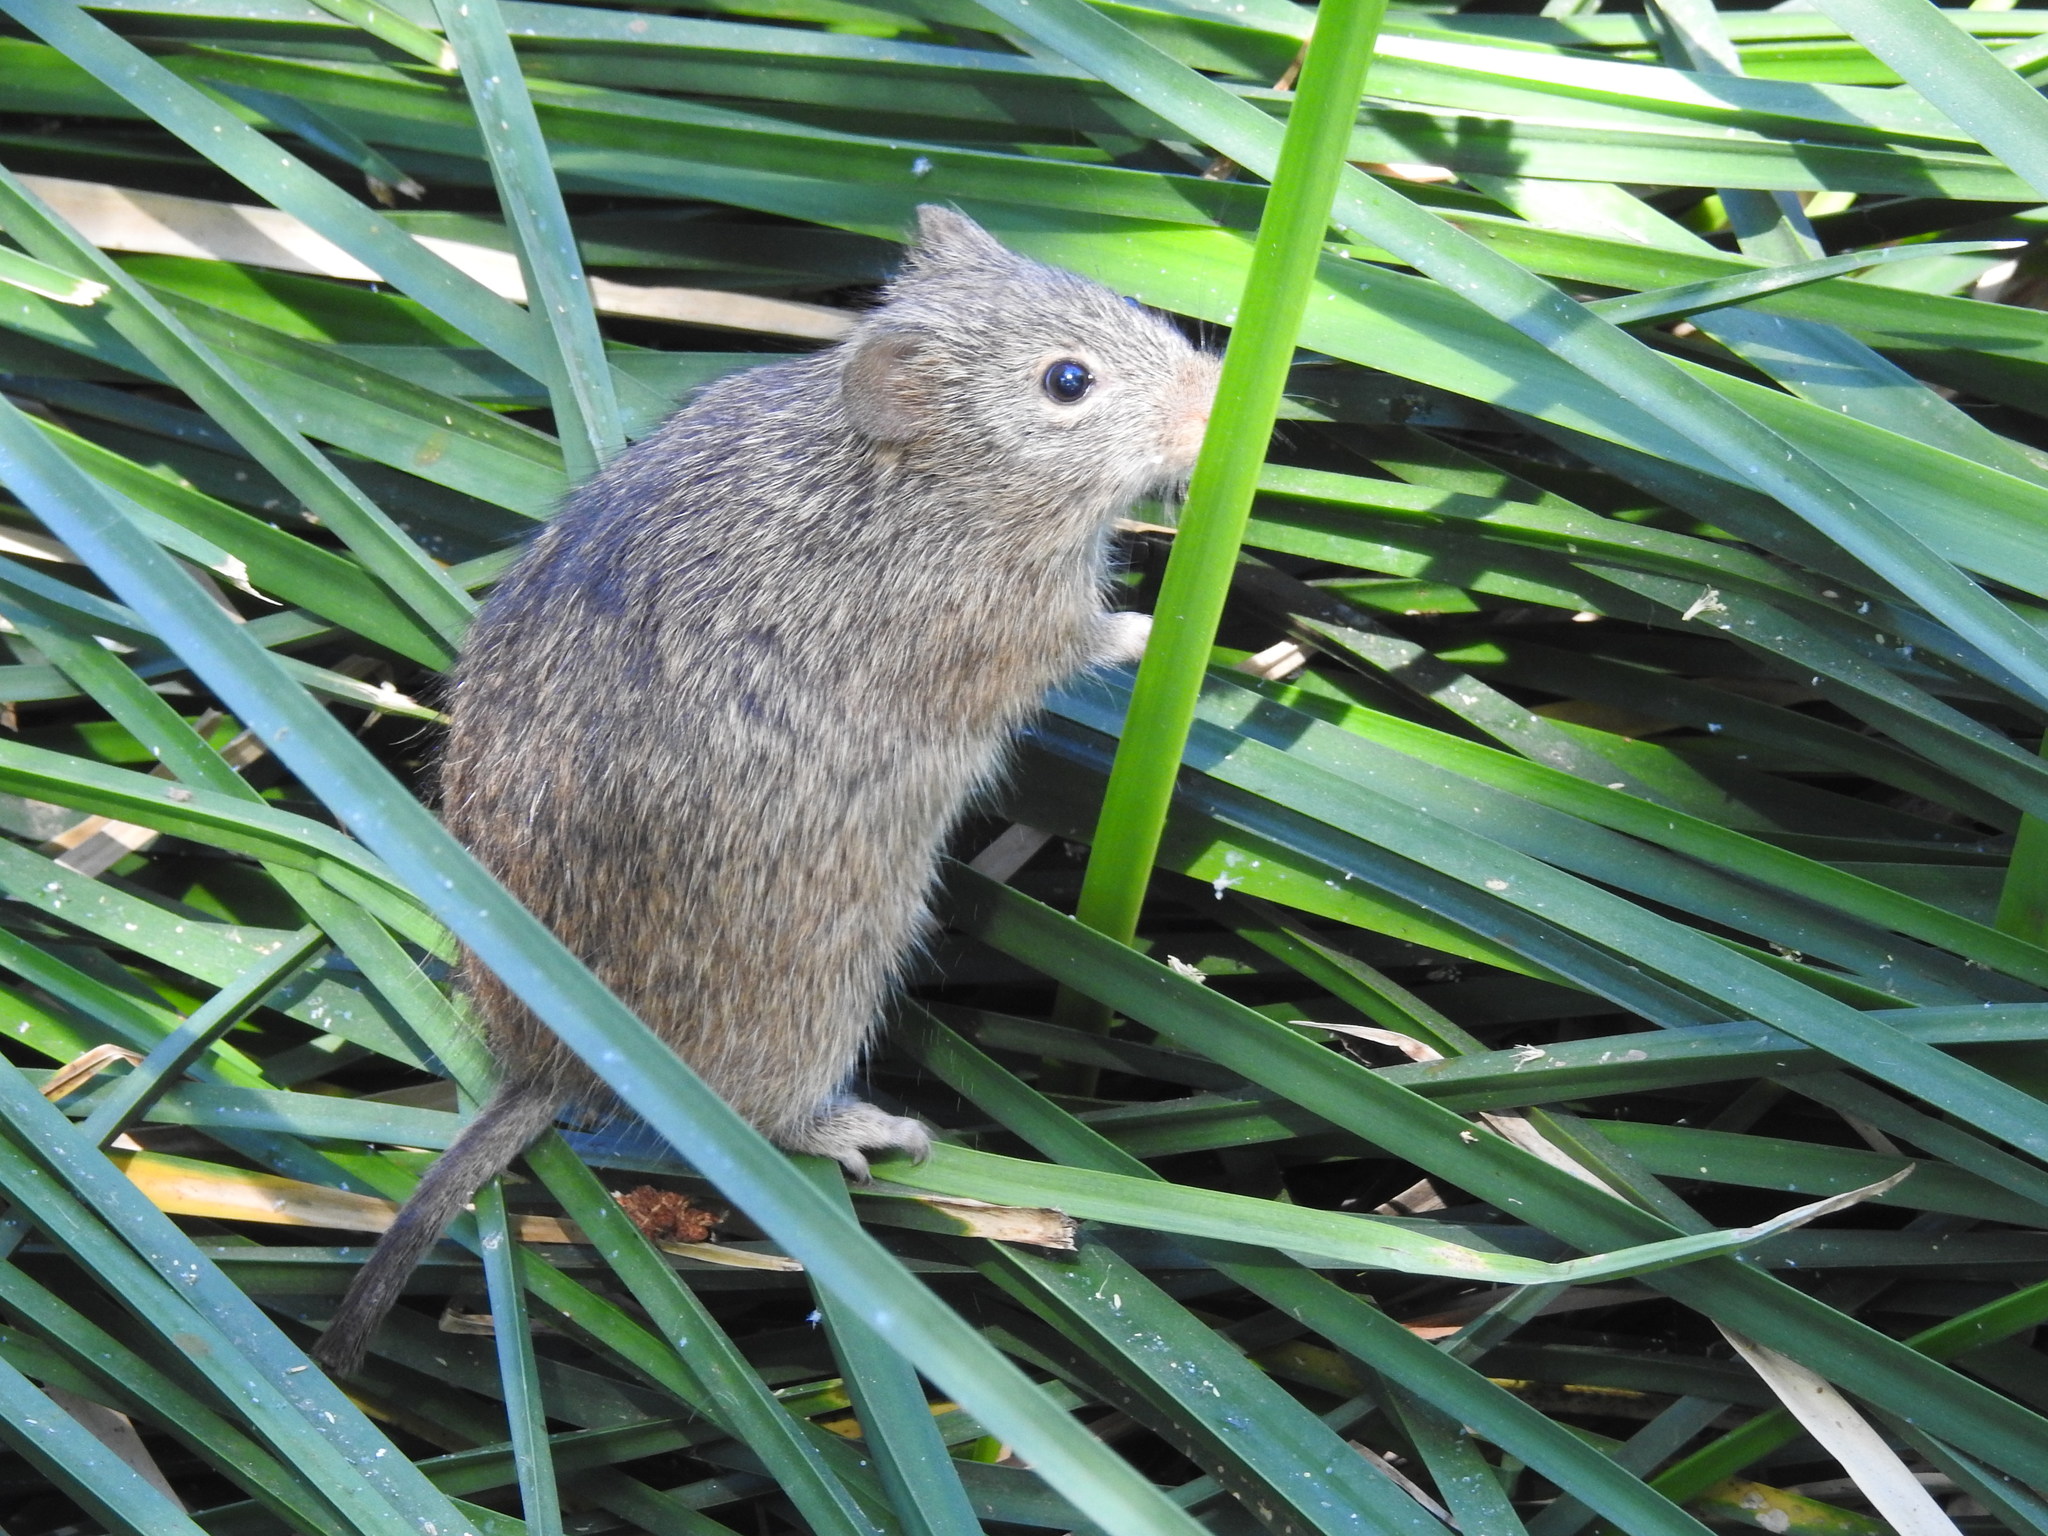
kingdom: Animalia
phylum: Chordata
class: Mammalia
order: Rodentia
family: Cricetidae
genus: Sigmodon
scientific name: Sigmodon arizonae
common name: Arizona cotton rat
